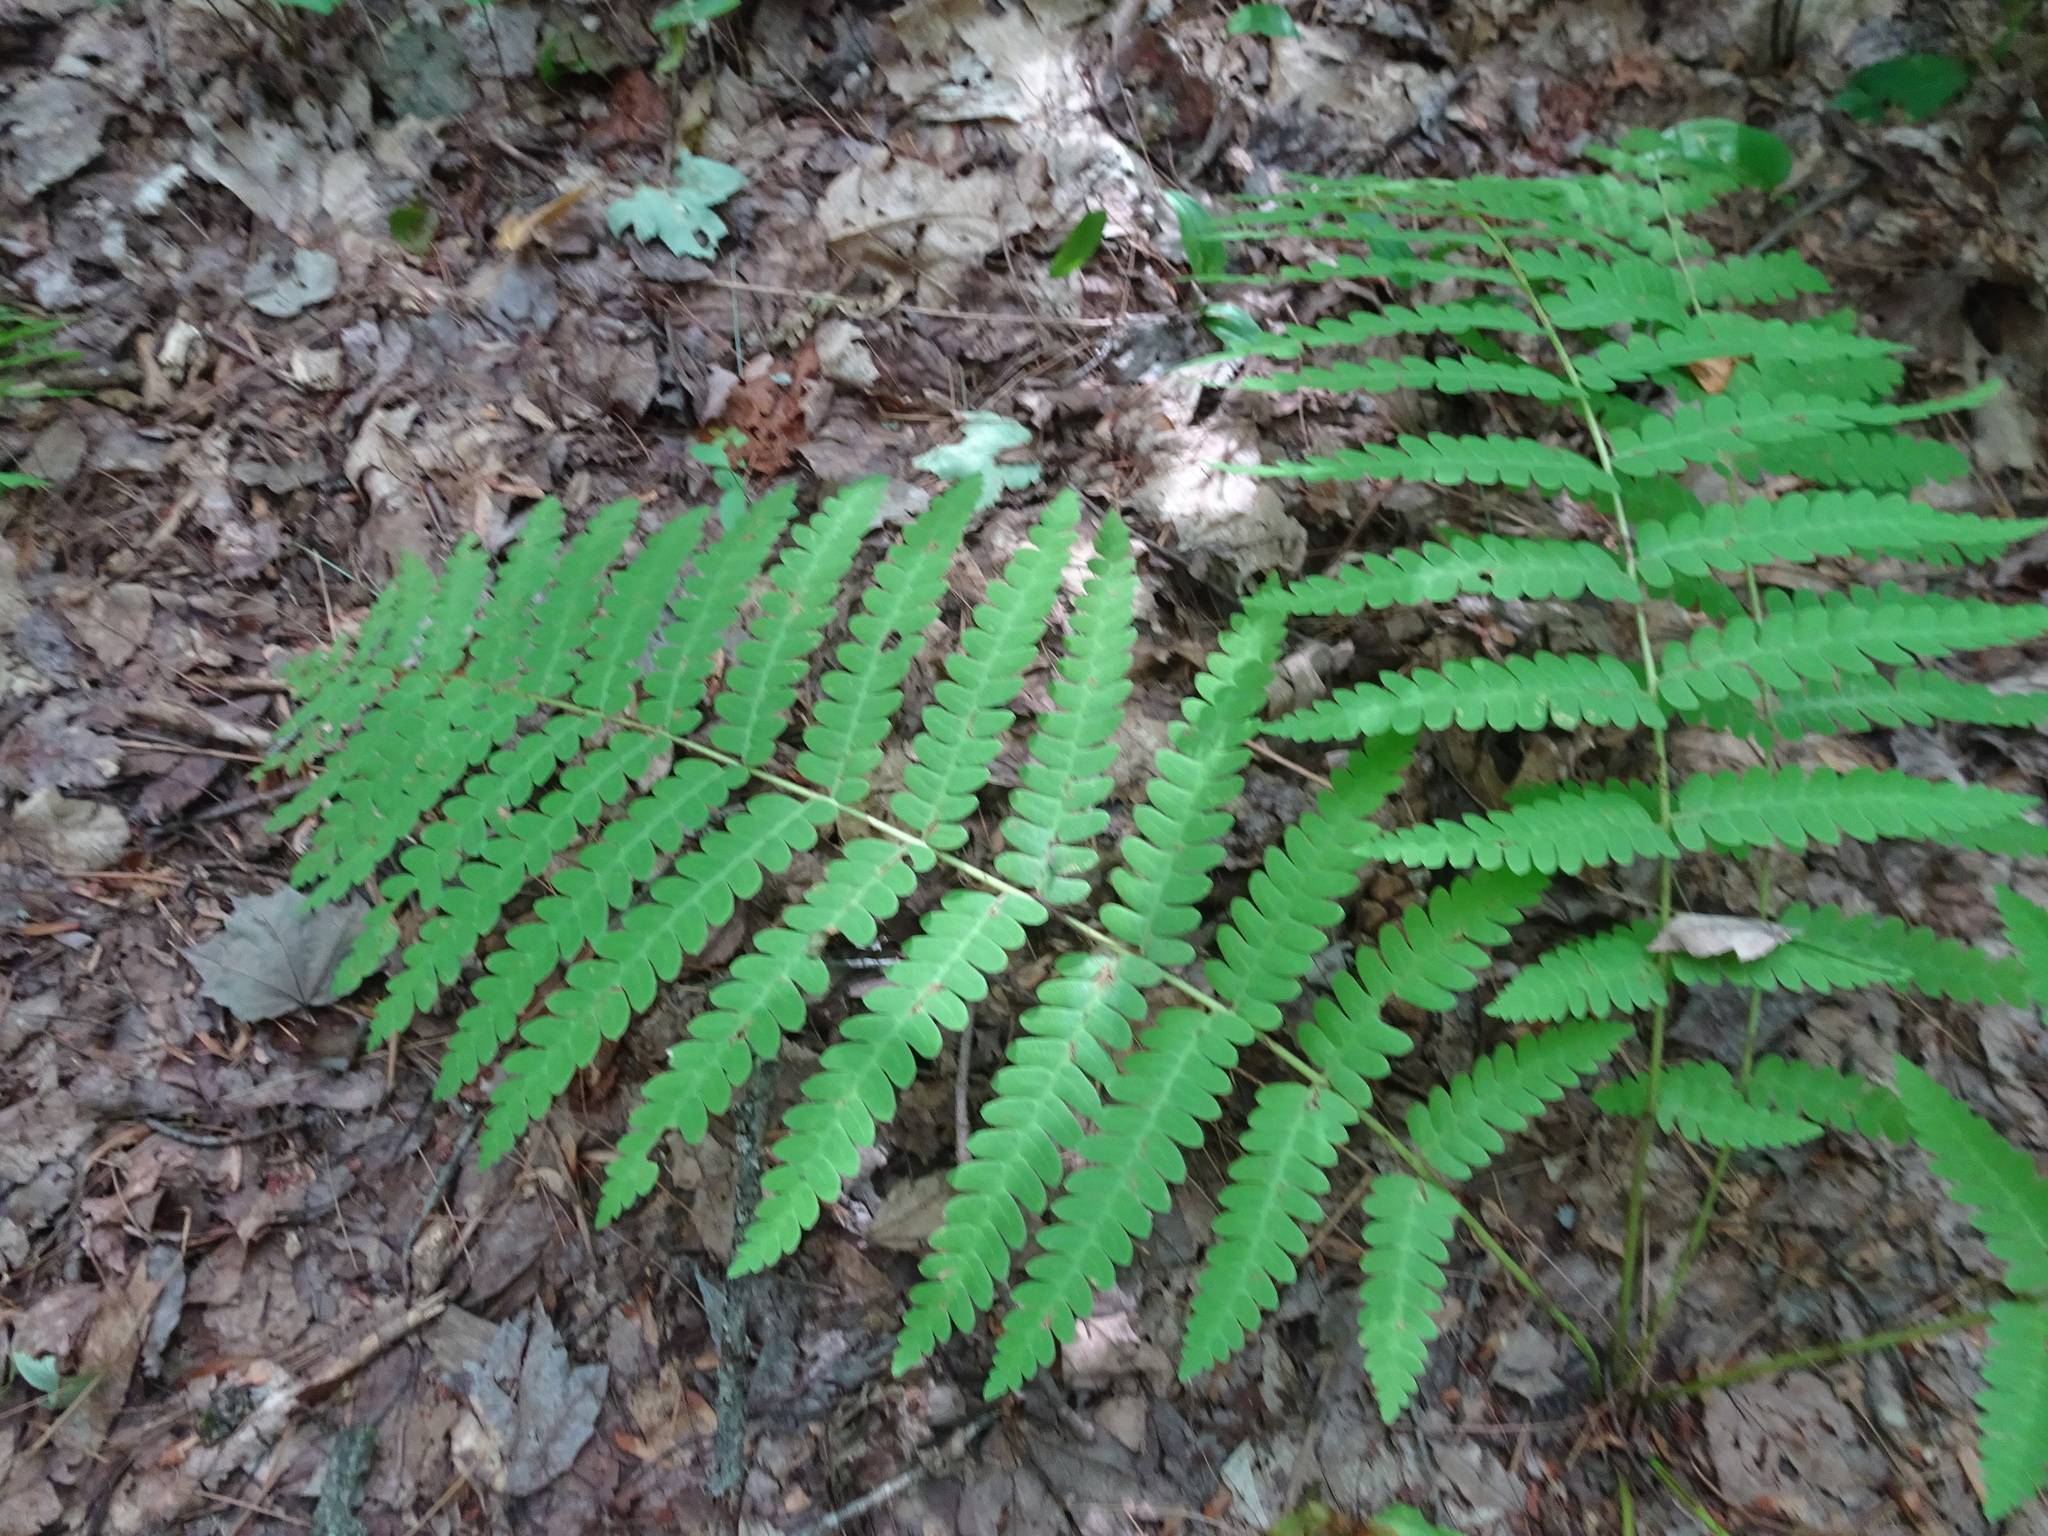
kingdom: Plantae
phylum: Tracheophyta
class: Polypodiopsida
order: Osmundales
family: Osmundaceae
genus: Claytosmunda
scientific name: Claytosmunda claytoniana
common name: Clayton's fern
